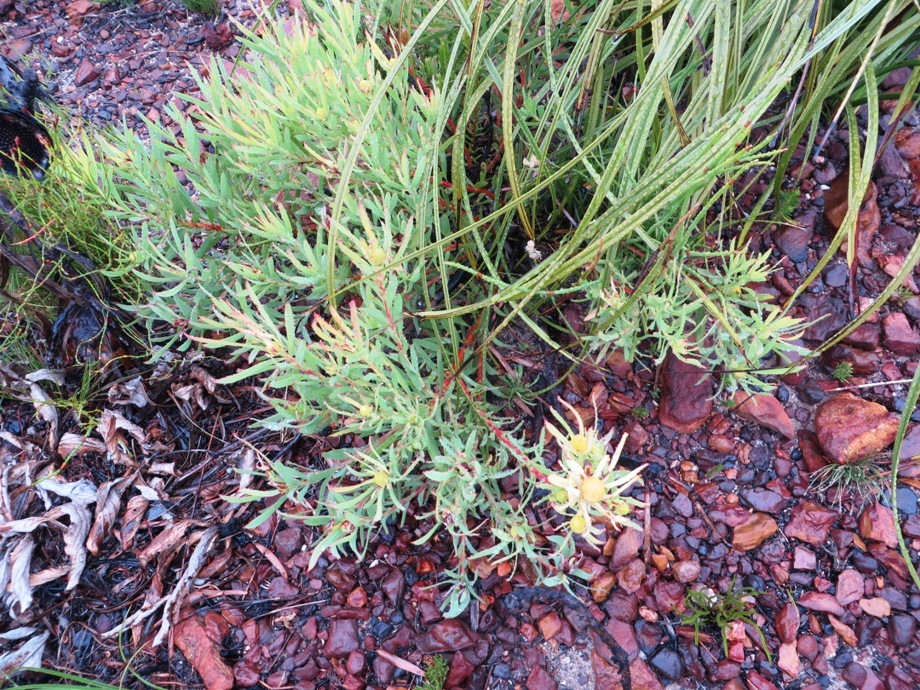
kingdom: Plantae
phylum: Tracheophyta
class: Magnoliopsida
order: Proteales
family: Proteaceae
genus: Leucadendron
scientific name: Leucadendron salignum
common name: Common sunshine conebush
